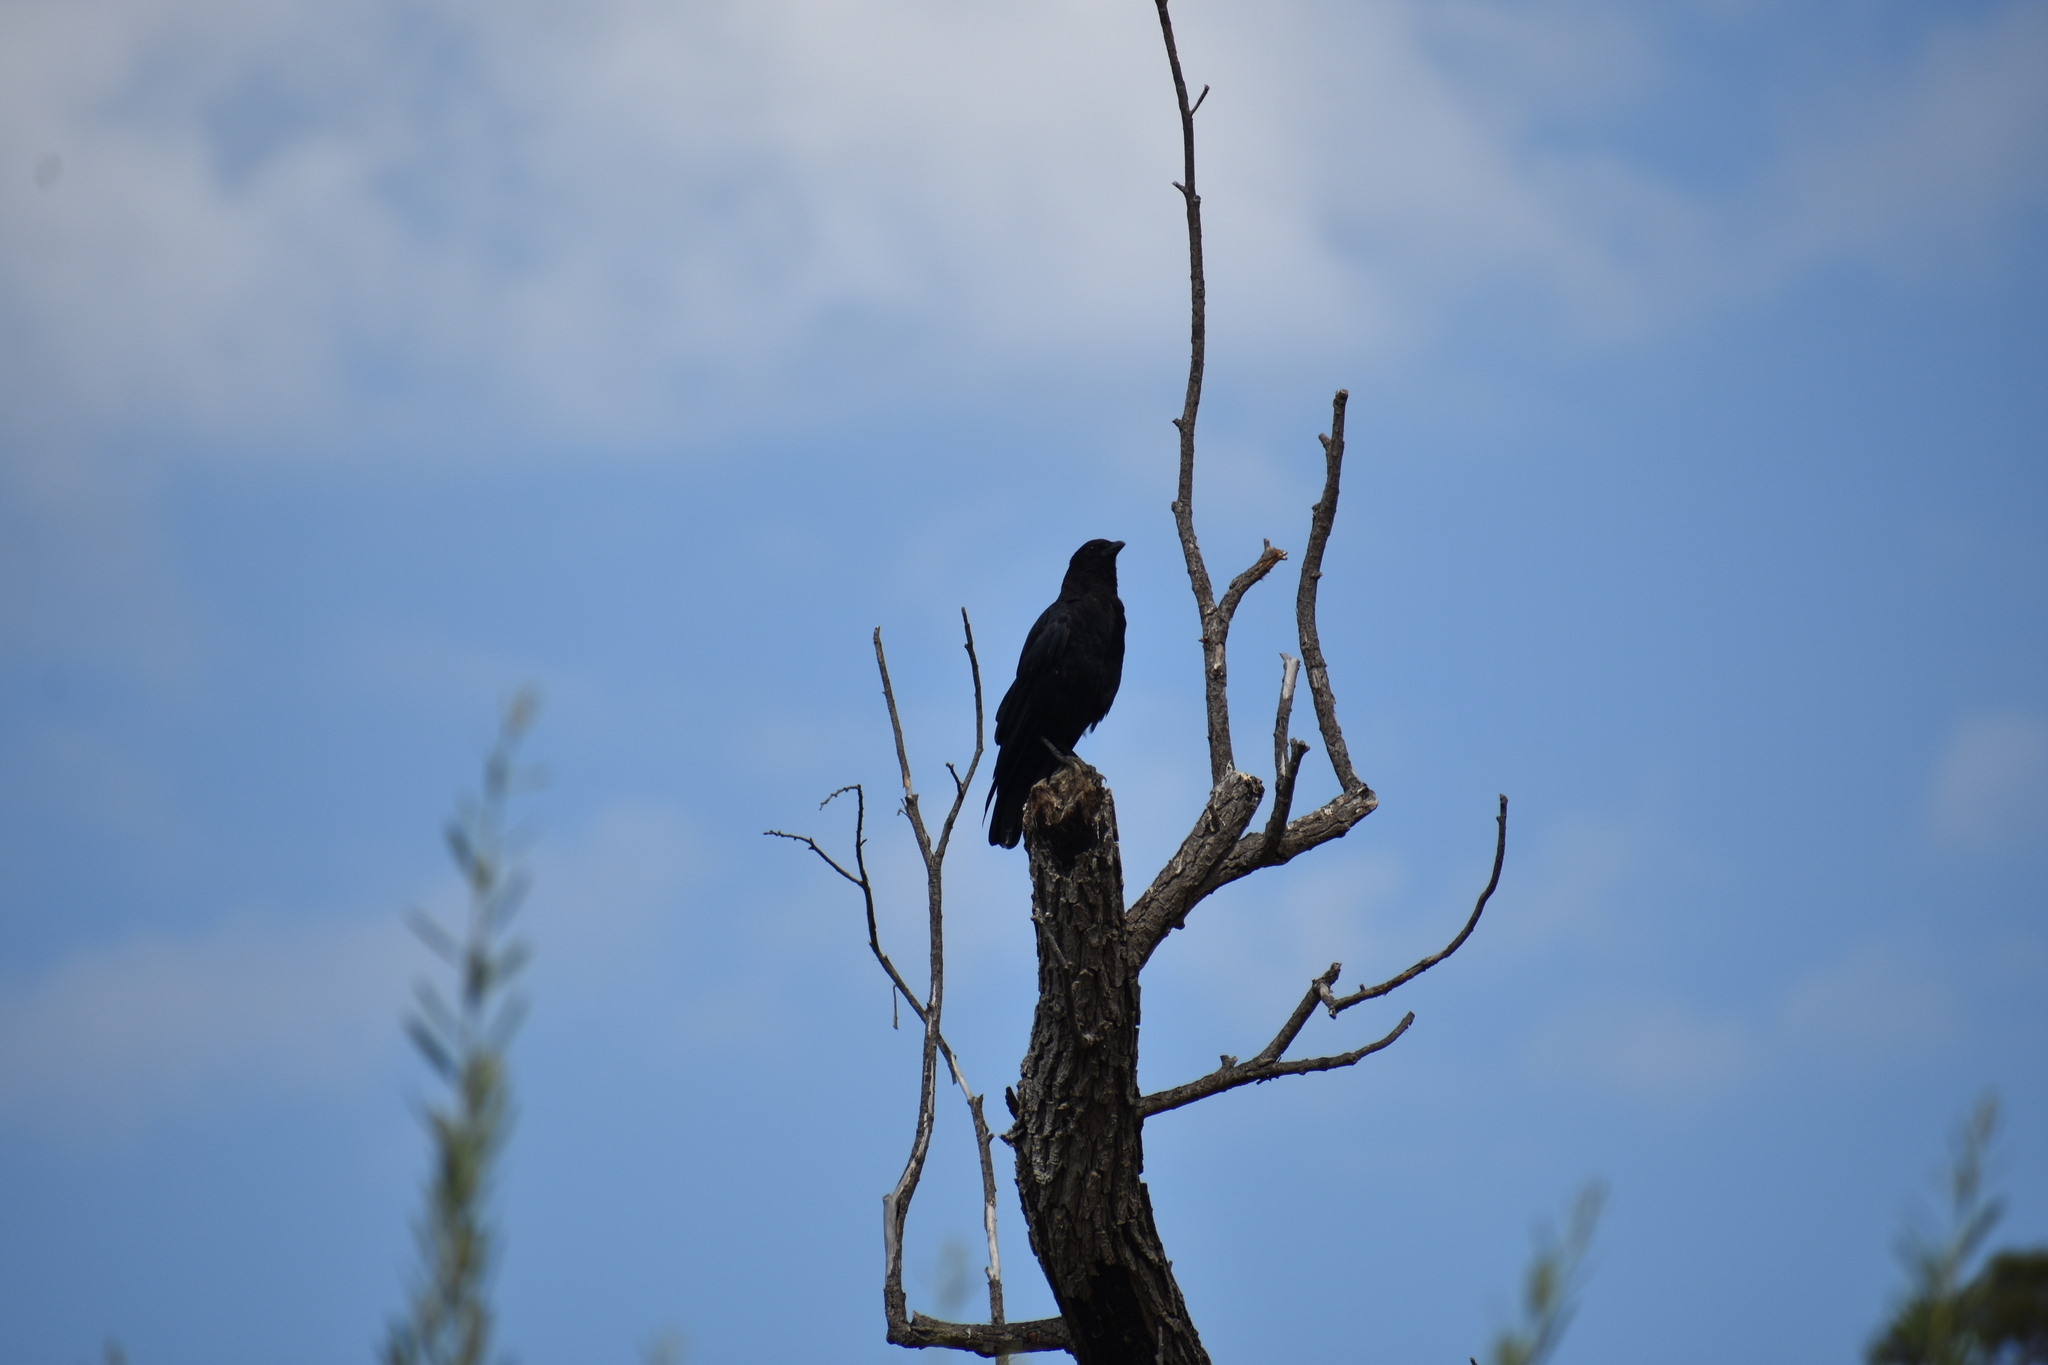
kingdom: Animalia
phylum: Chordata
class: Aves
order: Passeriformes
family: Corvidae
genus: Corvus
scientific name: Corvus brachyrhynchos
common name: American crow
